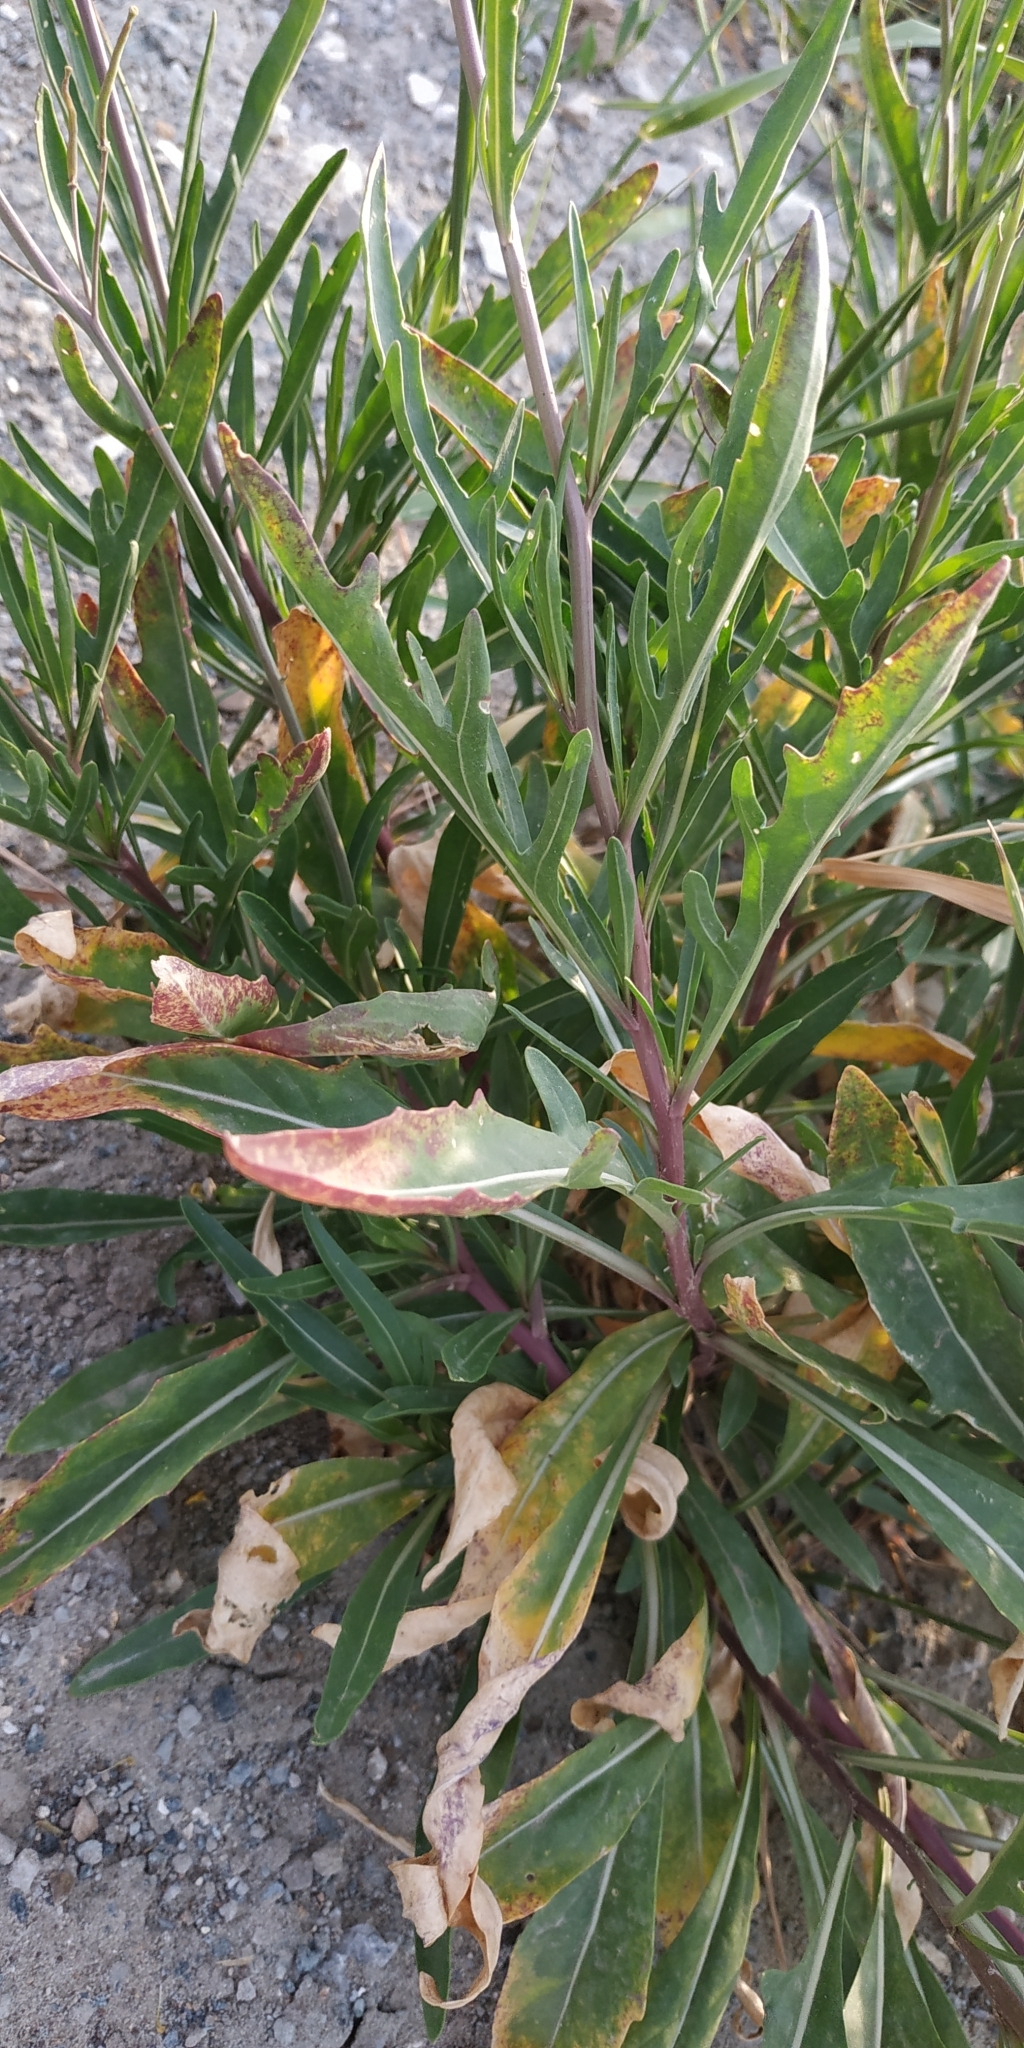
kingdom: Plantae
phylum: Tracheophyta
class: Magnoliopsida
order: Brassicales
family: Brassicaceae
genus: Diplotaxis
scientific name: Diplotaxis tenuifolia
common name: Perennial wall-rocket
